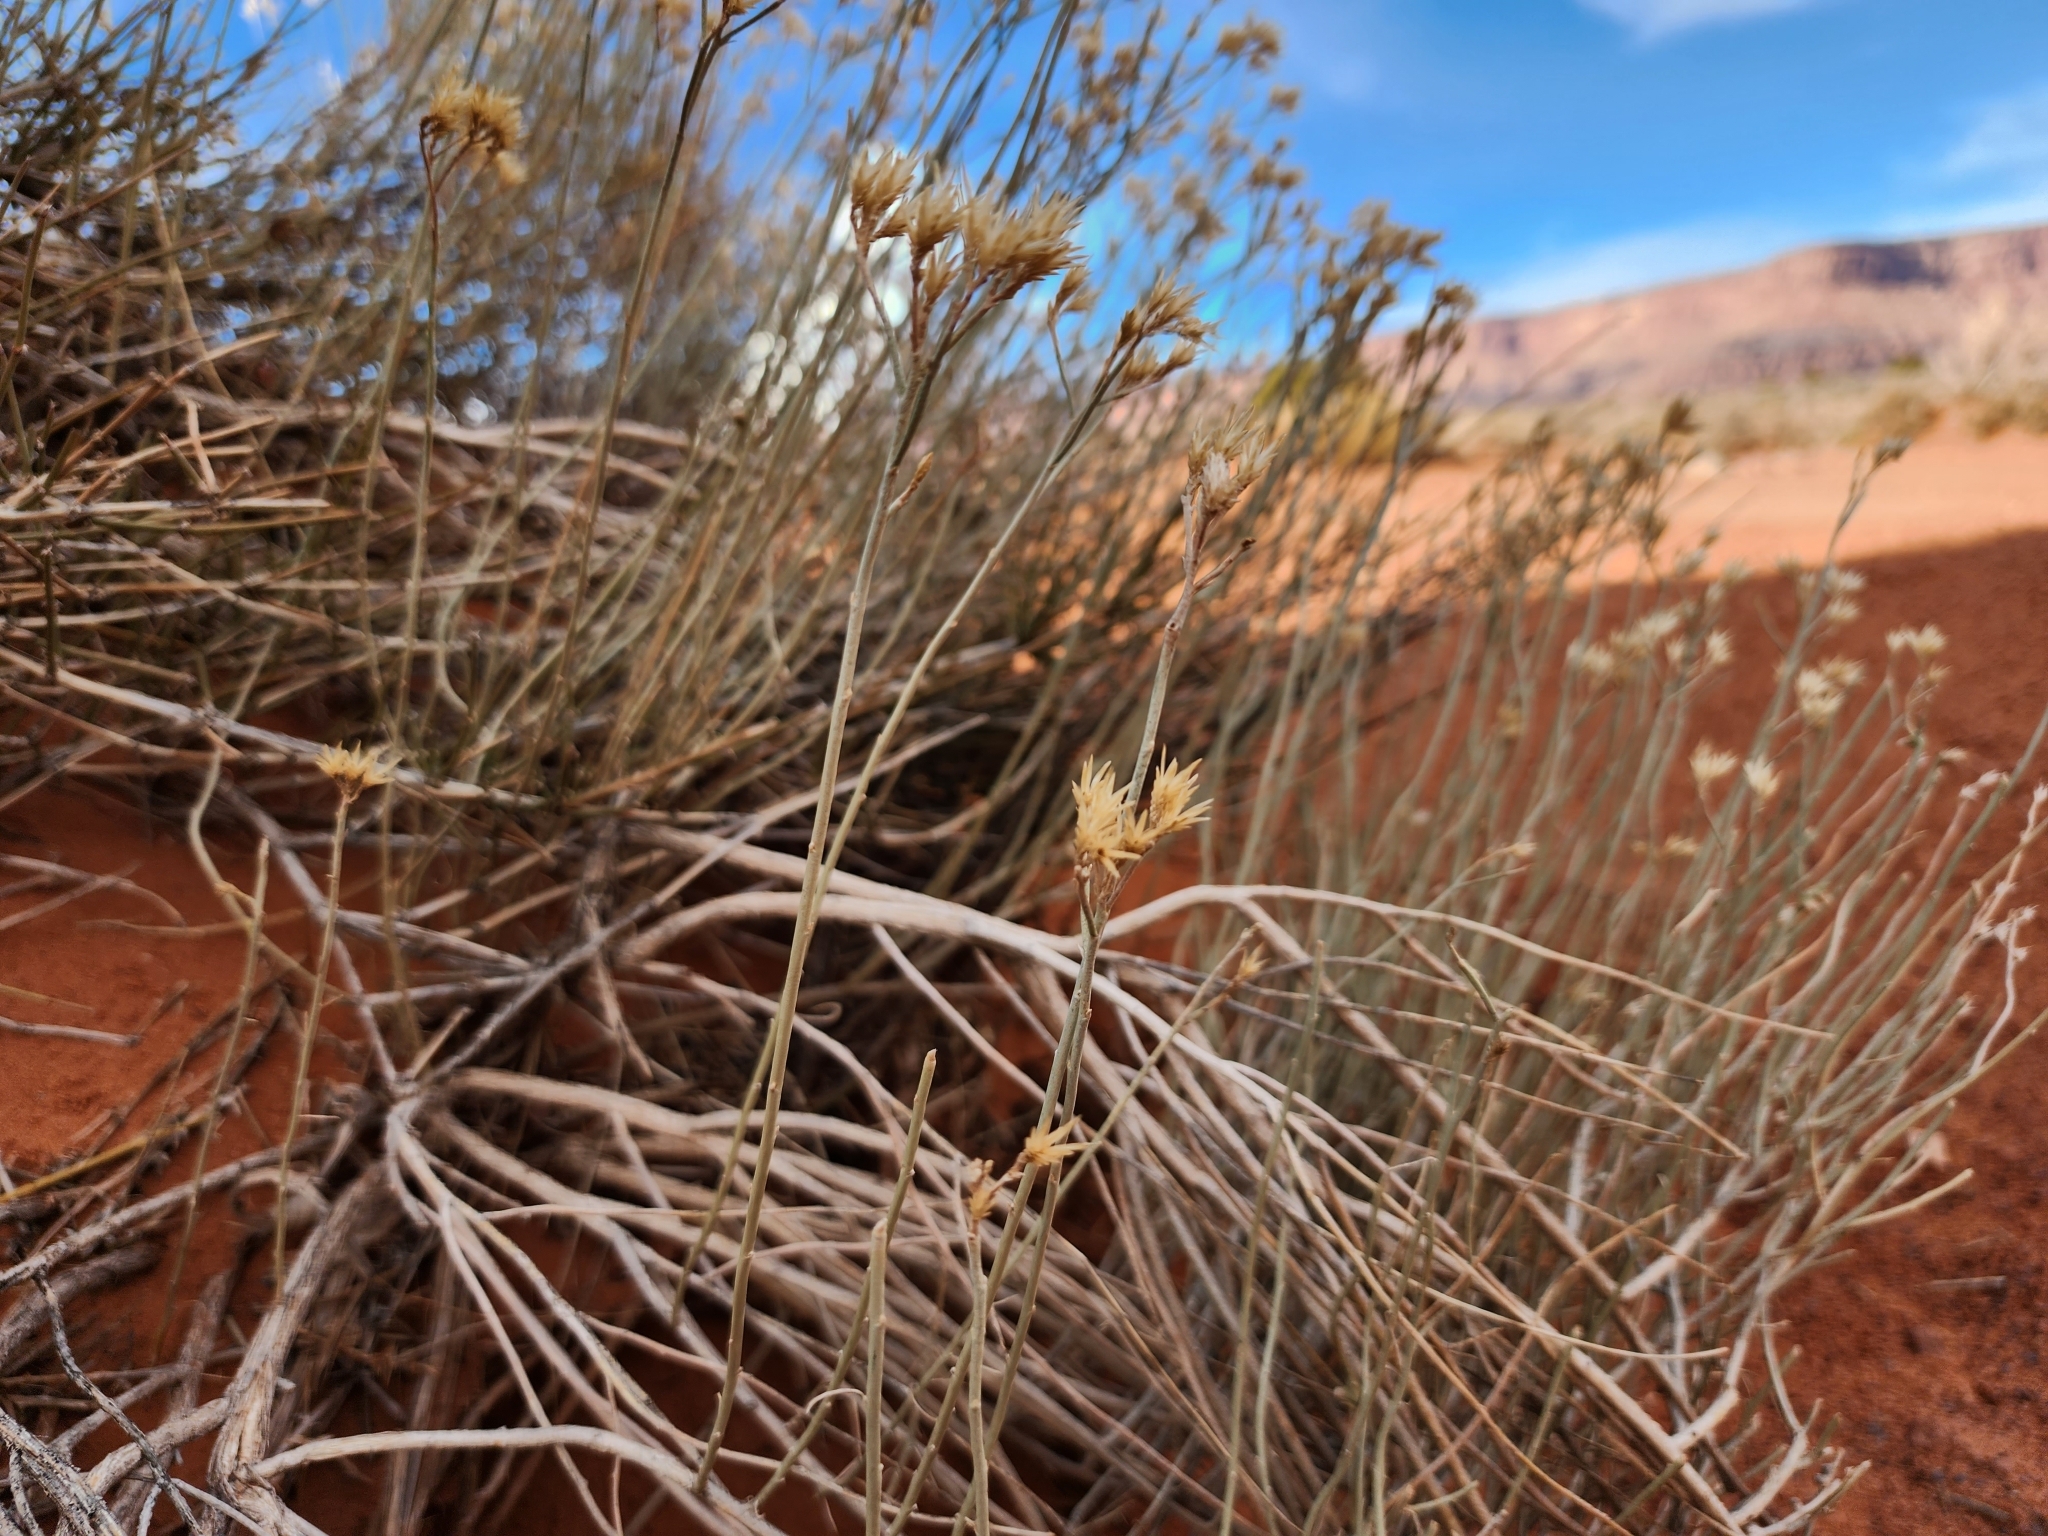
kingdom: Plantae
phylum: Tracheophyta
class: Magnoliopsida
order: Asterales
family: Asteraceae
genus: Ericameria
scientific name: Ericameria nauseosa
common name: Rubber rabbitbrush
